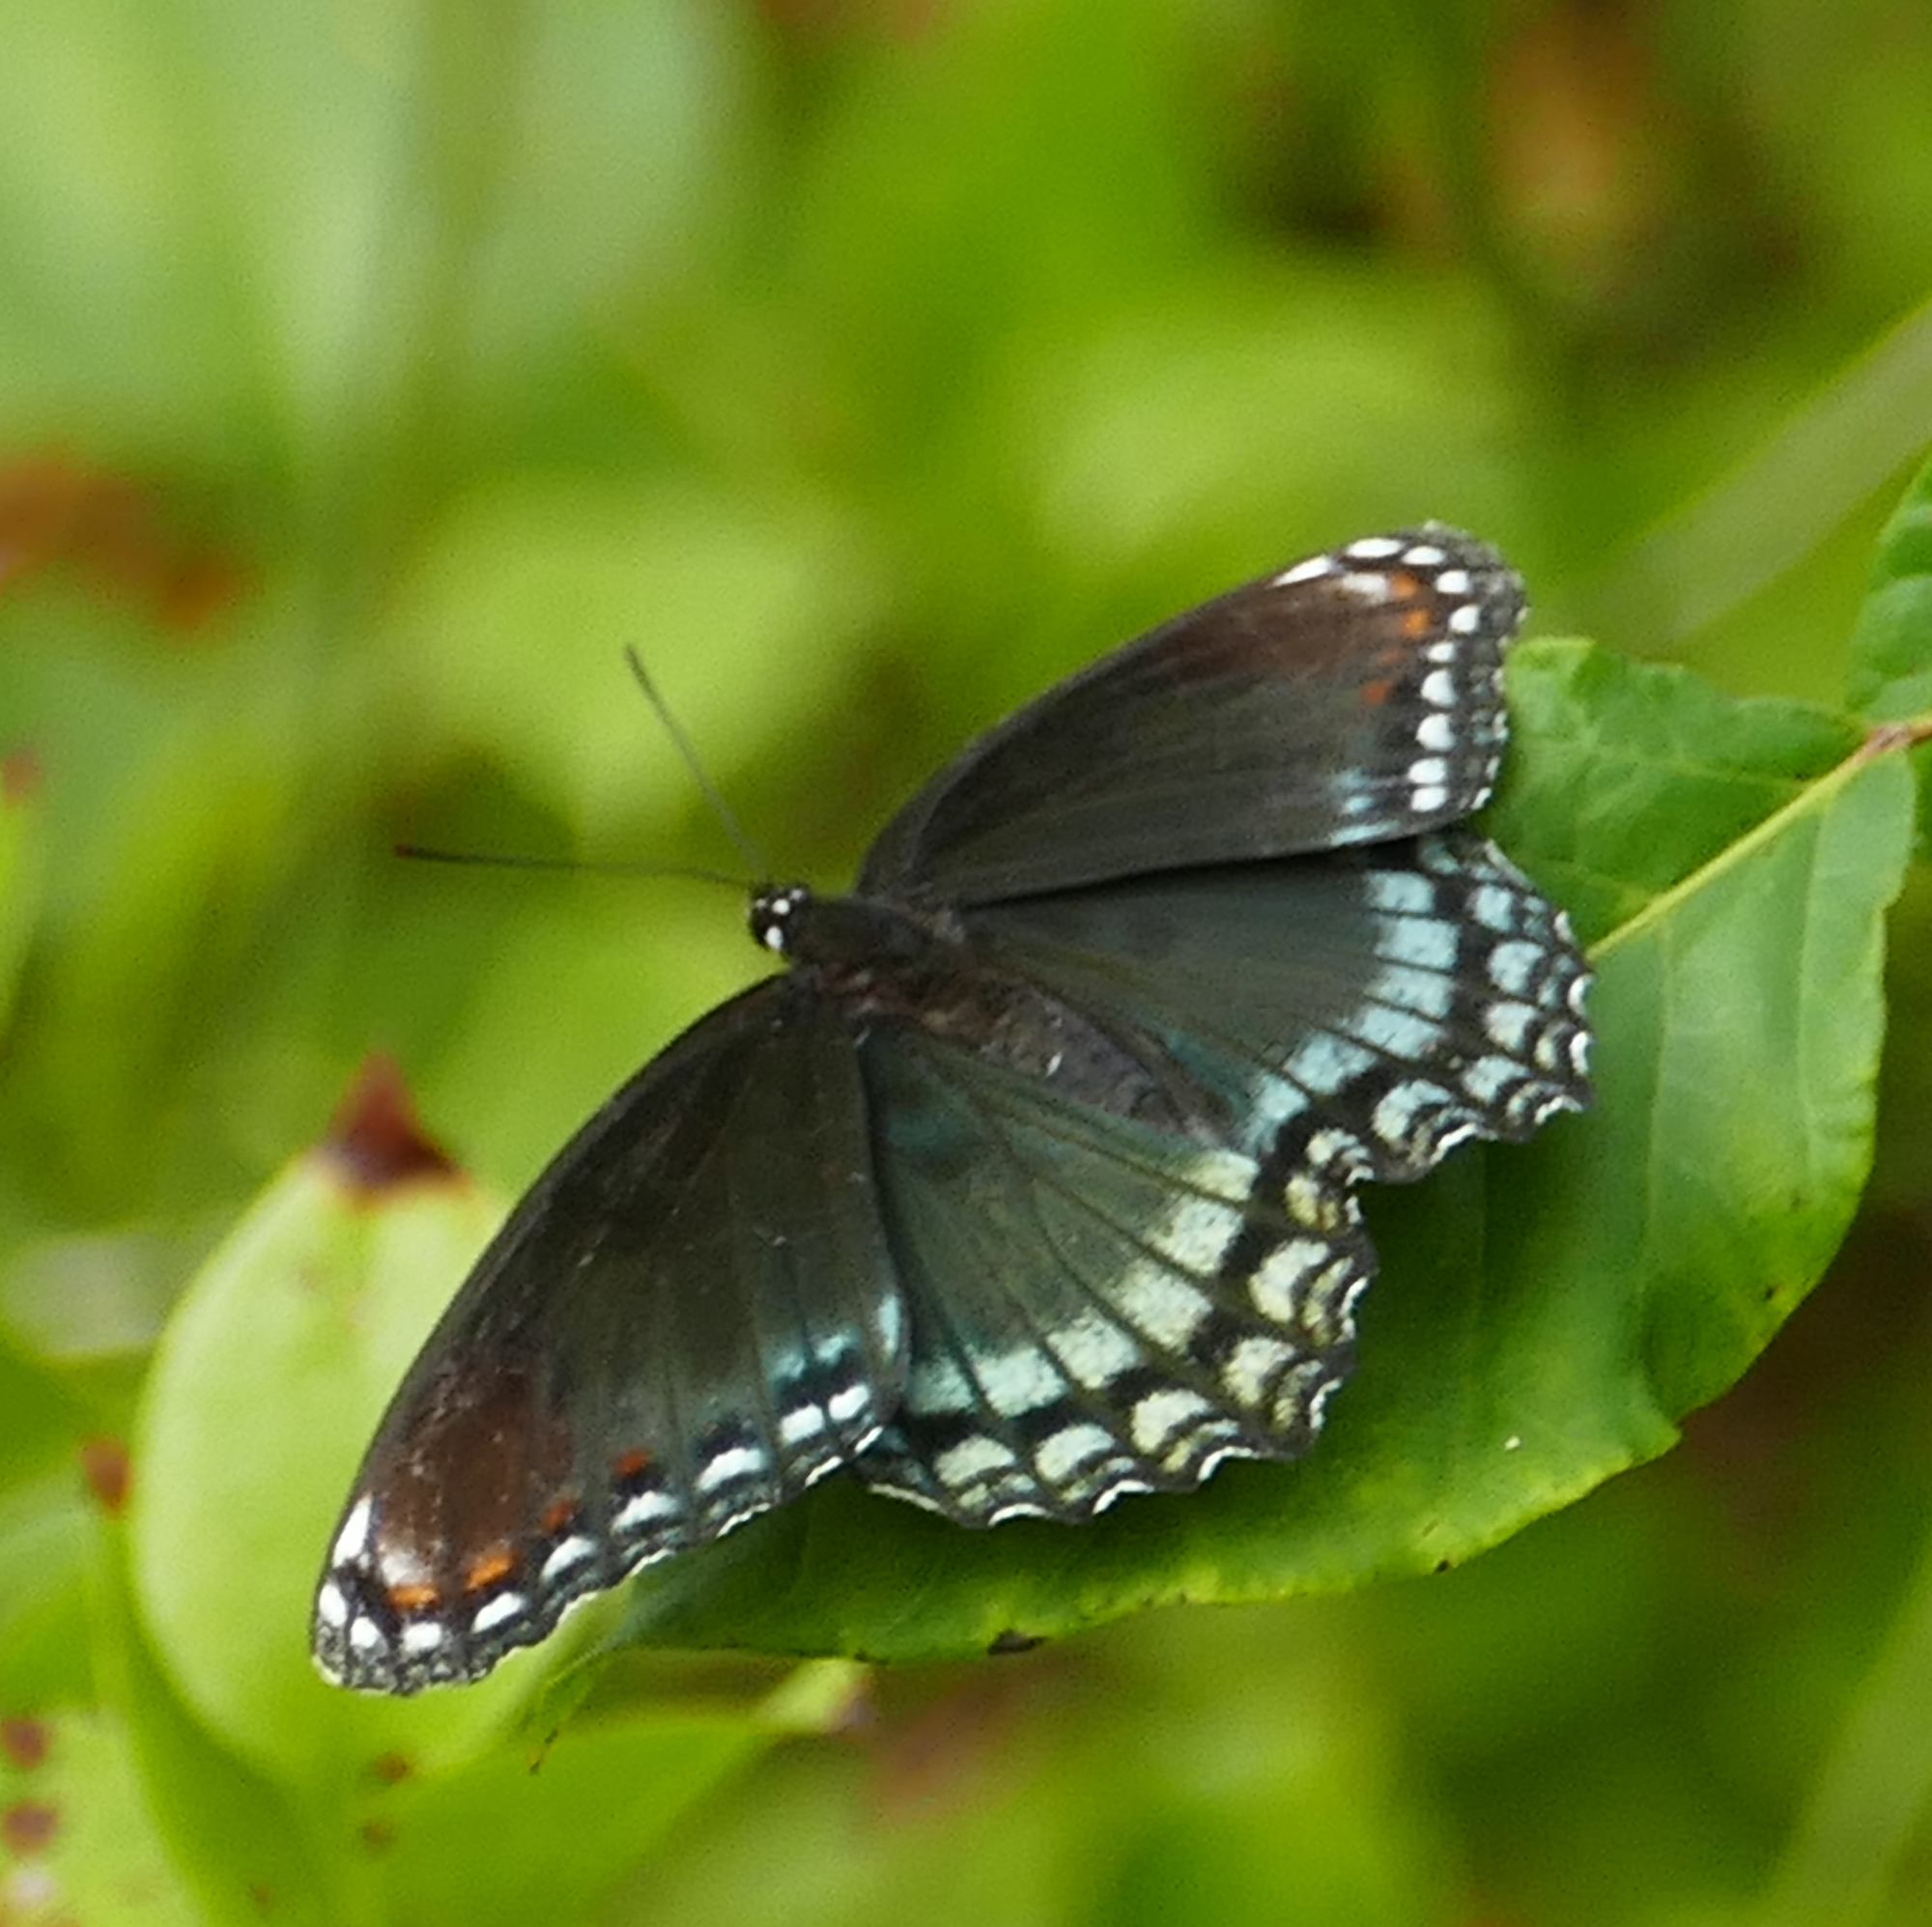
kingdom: Animalia
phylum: Arthropoda
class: Insecta
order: Lepidoptera
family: Nymphalidae
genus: Limenitis
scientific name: Limenitis astyanax
